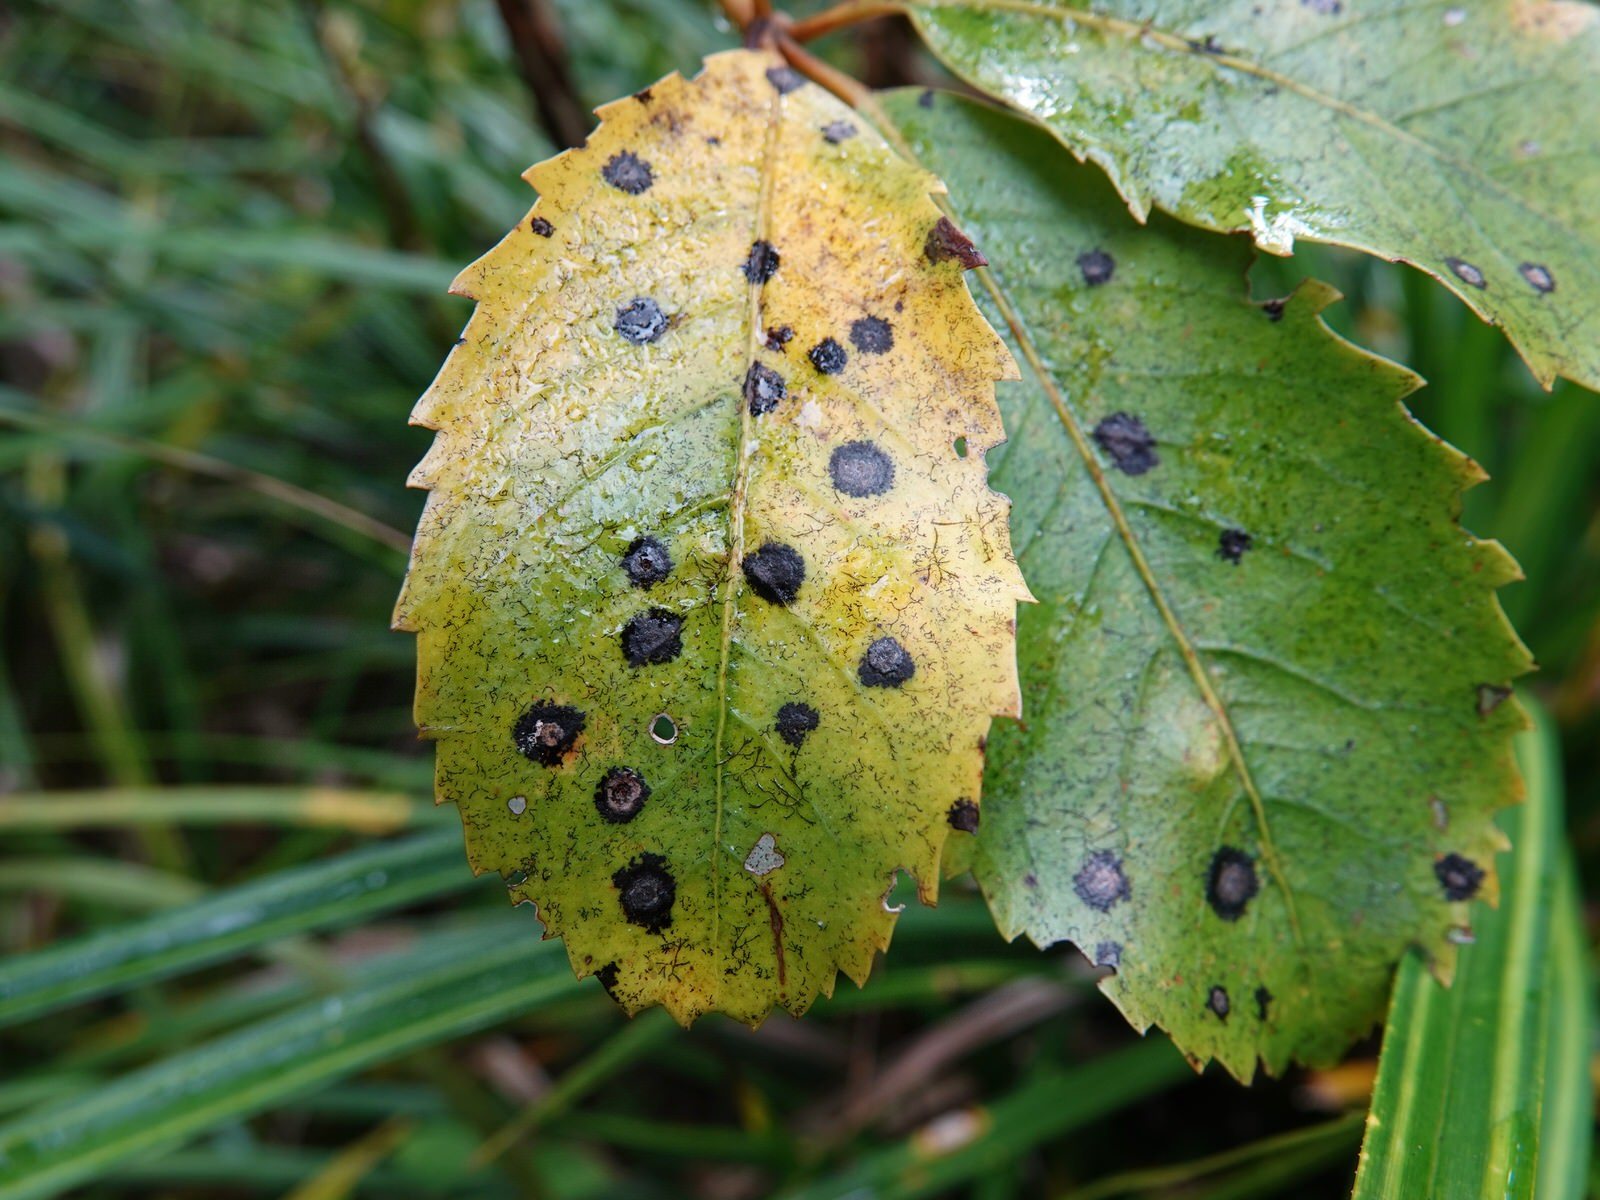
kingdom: Plantae
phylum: Tracheophyta
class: Magnoliopsida
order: Apiales
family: Araliaceae
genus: Neopanax
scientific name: Neopanax arboreus
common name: Five-fingers
